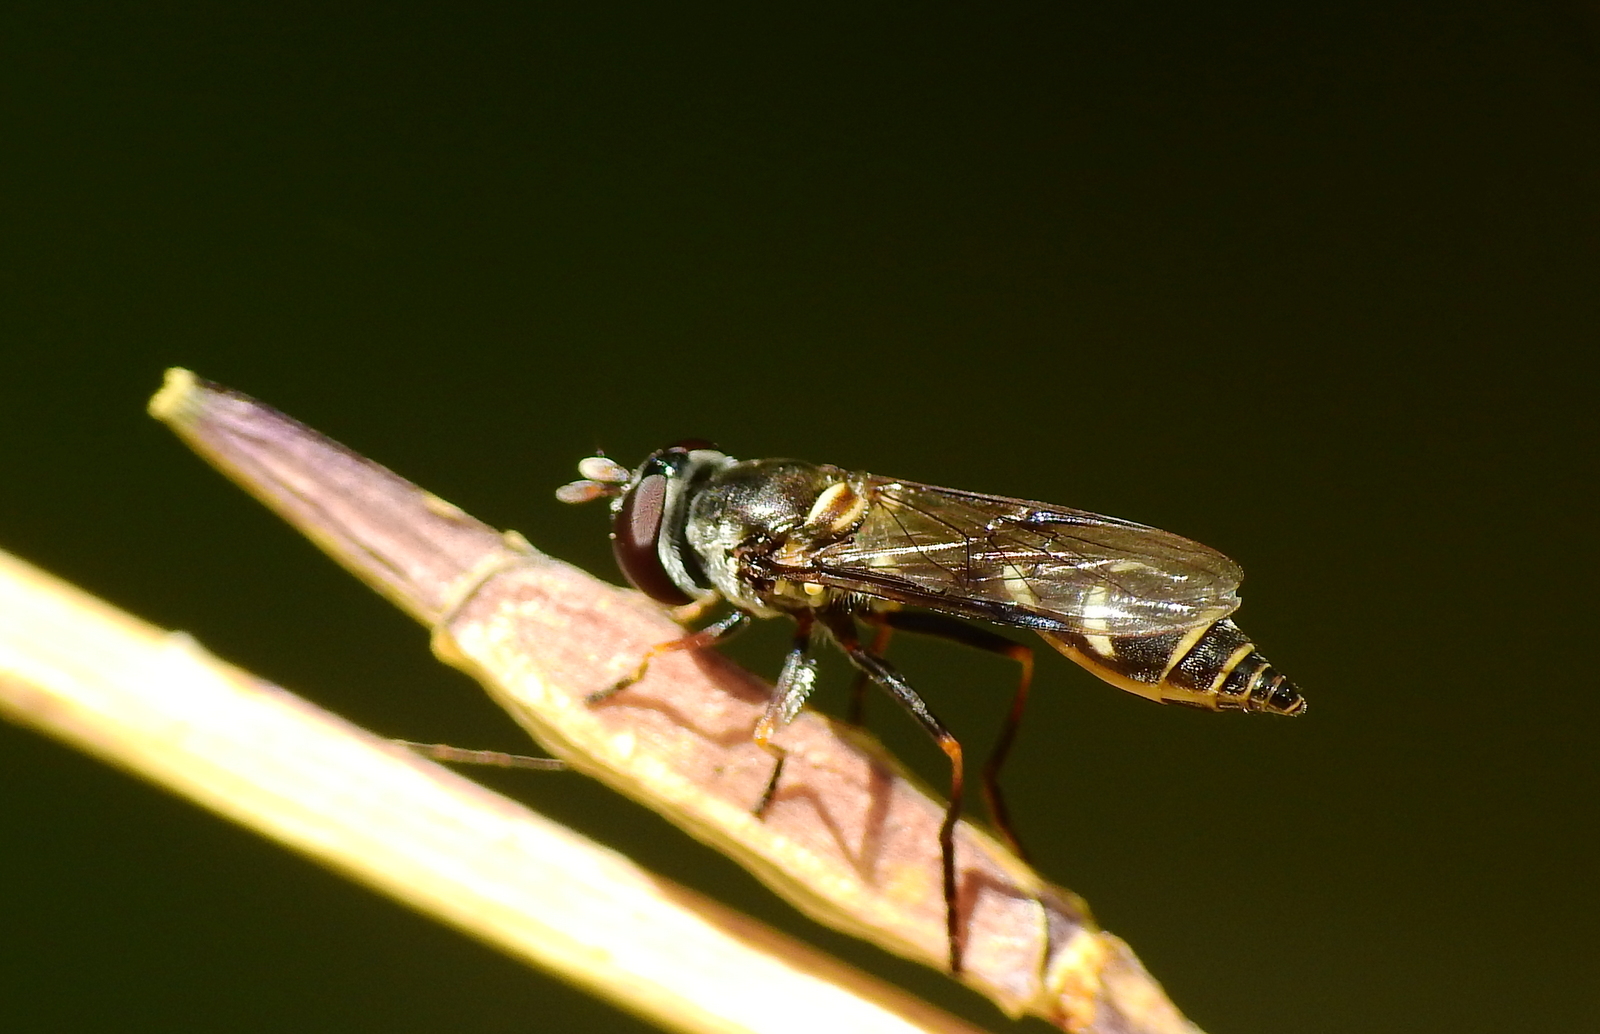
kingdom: Animalia
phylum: Arthropoda
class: Insecta
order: Diptera
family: Syrphidae
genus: Dioprosopa
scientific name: Dioprosopa clavatus
